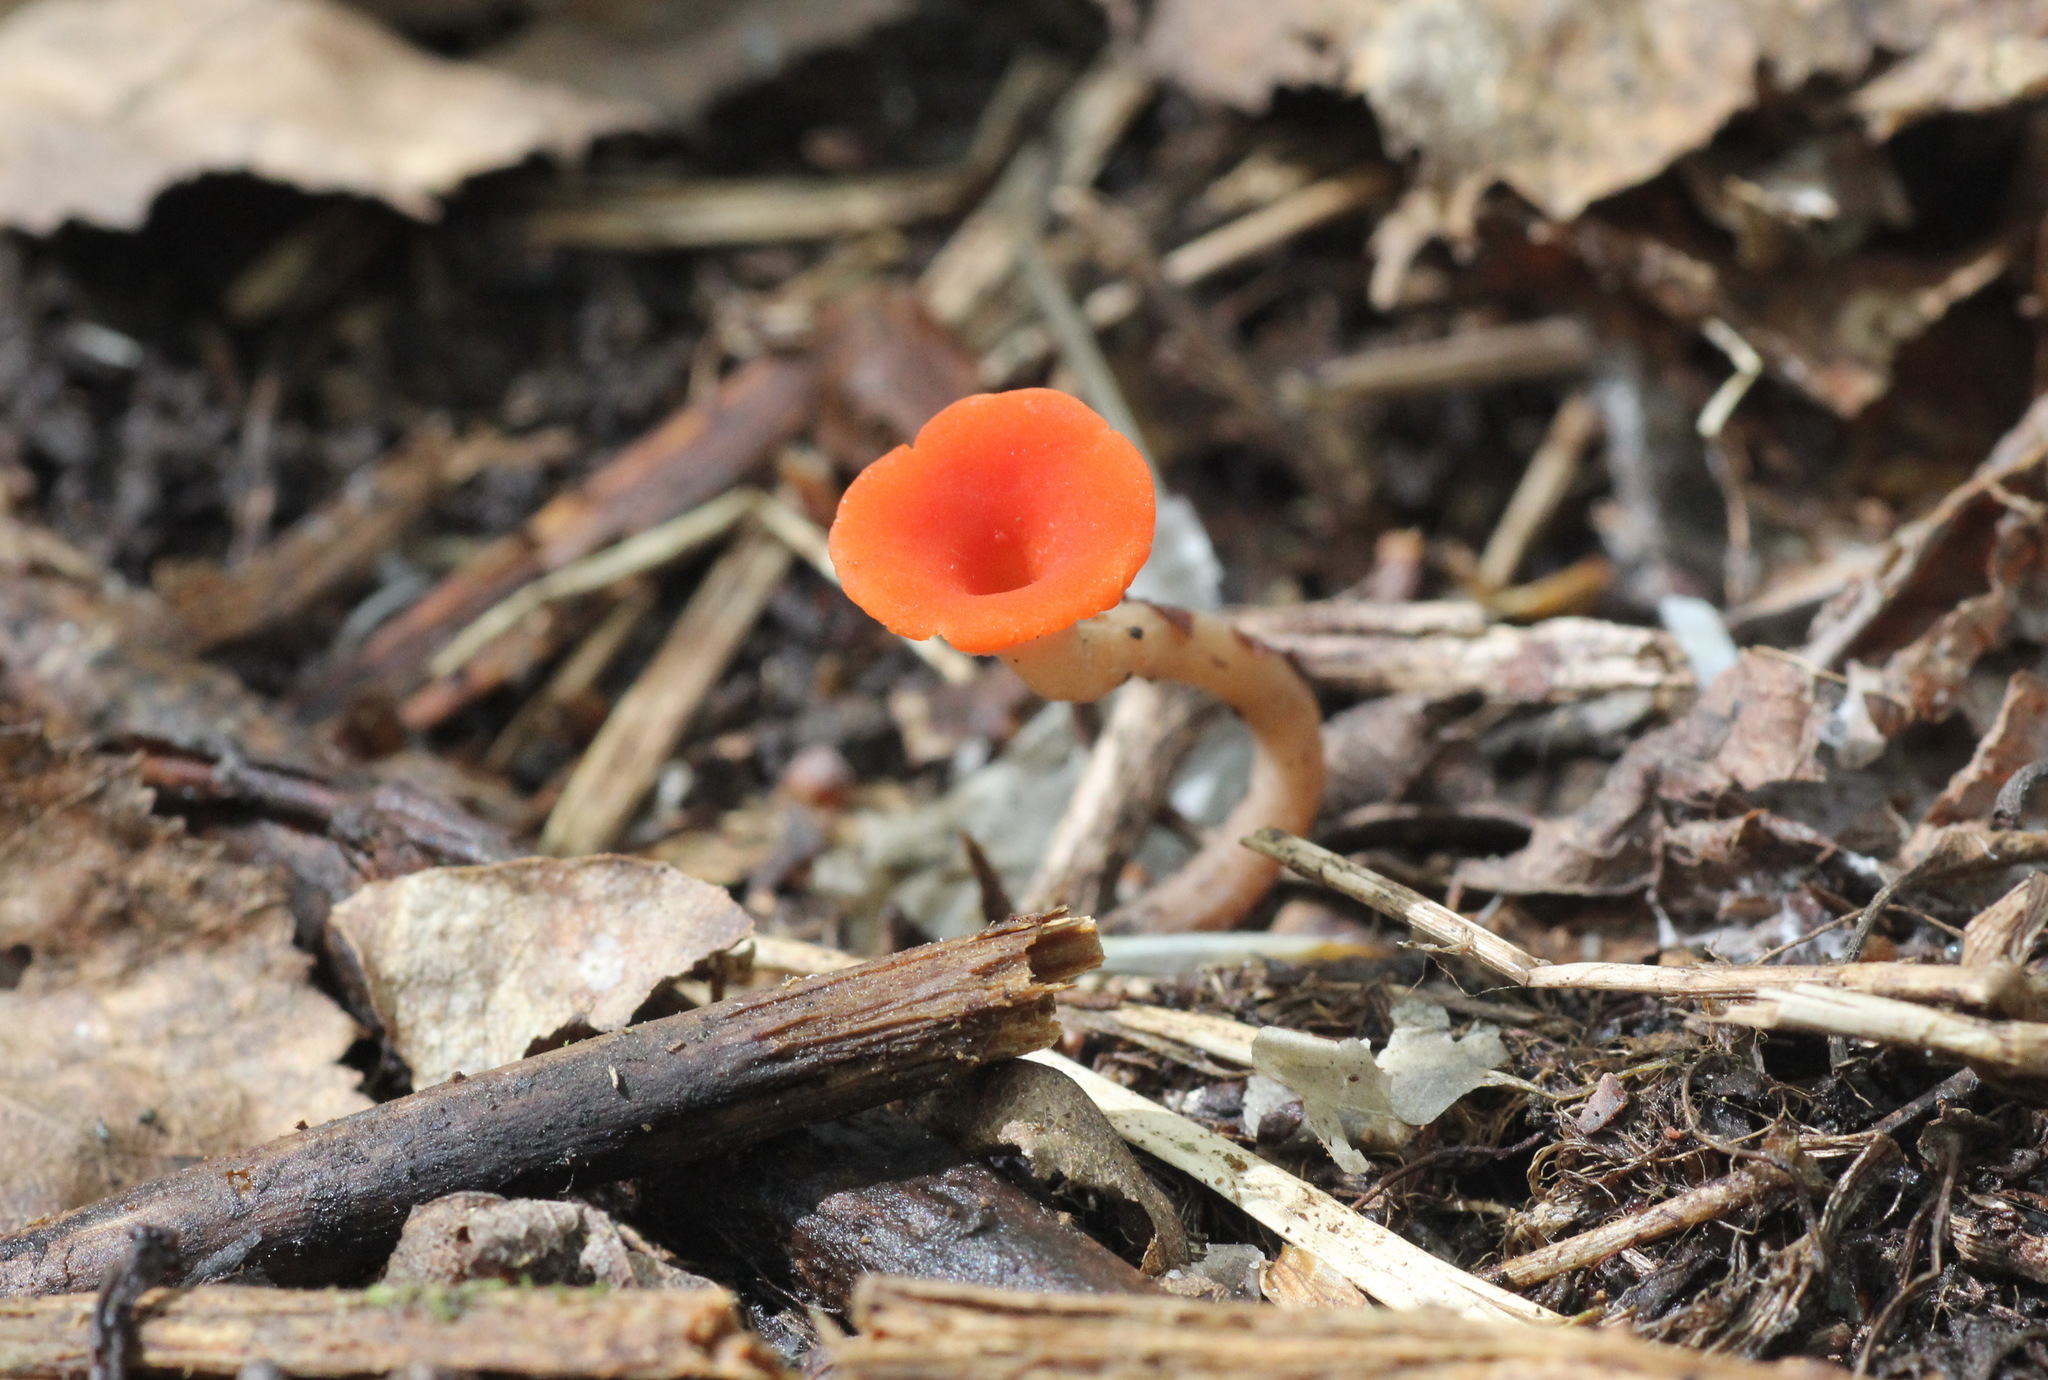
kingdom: Fungi
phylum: Ascomycota
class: Pezizomycetes
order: Pezizales
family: Sarcoscyphaceae
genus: Microstoma
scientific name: Microstoma protractum
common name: Rosy goblet
